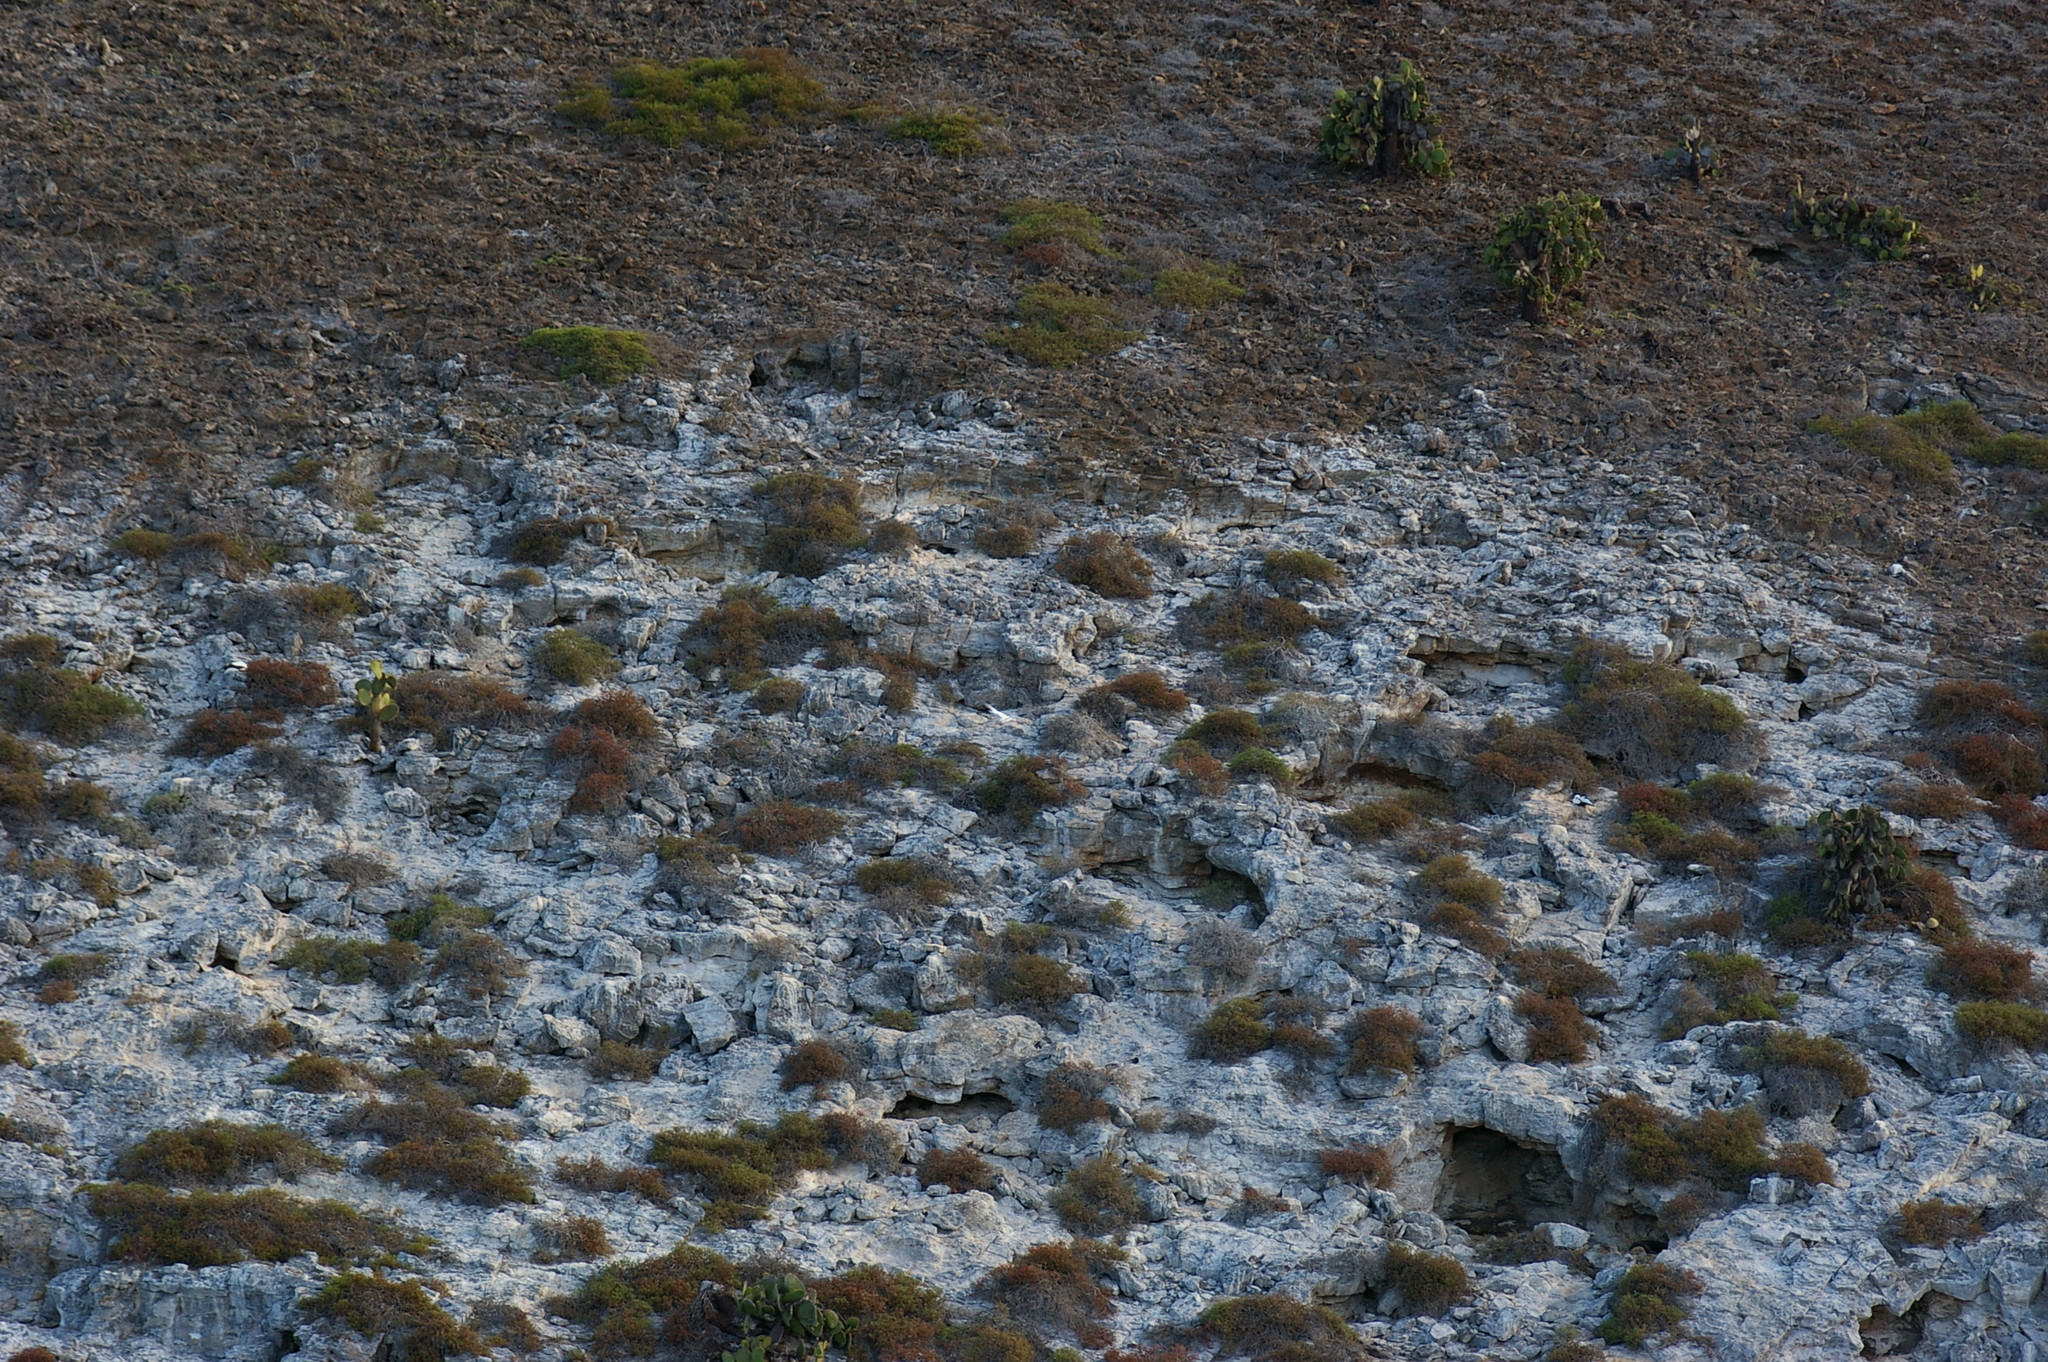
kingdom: Plantae
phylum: Tracheophyta
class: Magnoliopsida
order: Caryophyllales
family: Cactaceae
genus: Opuntia
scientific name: Opuntia galapageia
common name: Galápagos prickly pear
